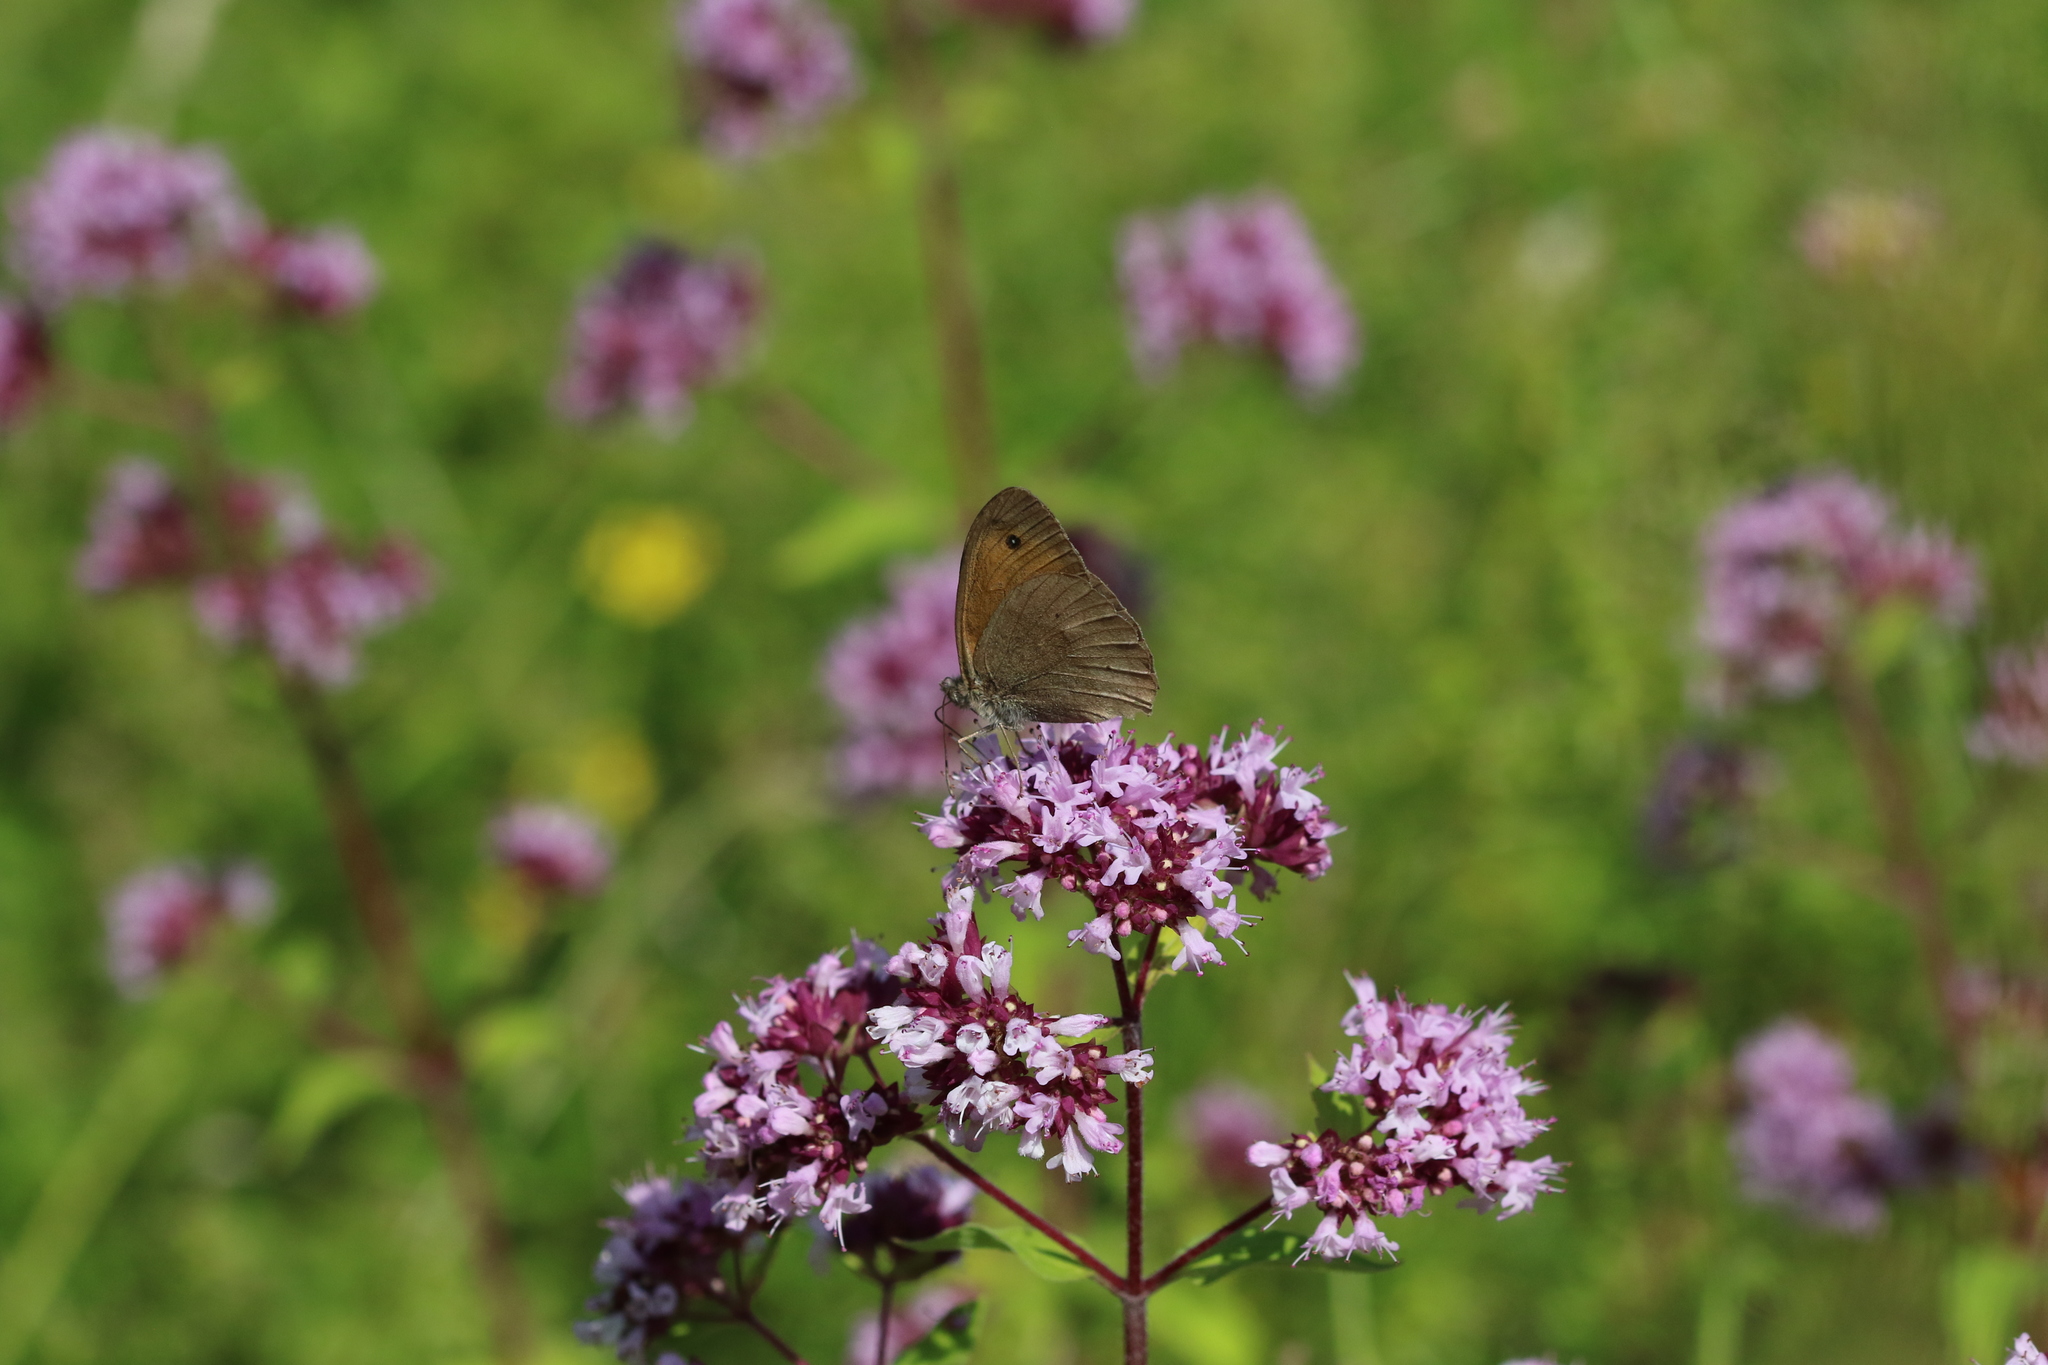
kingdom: Animalia
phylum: Arthropoda
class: Insecta
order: Lepidoptera
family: Nymphalidae
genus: Maniola
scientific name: Maniola jurtina
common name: Meadow brown
